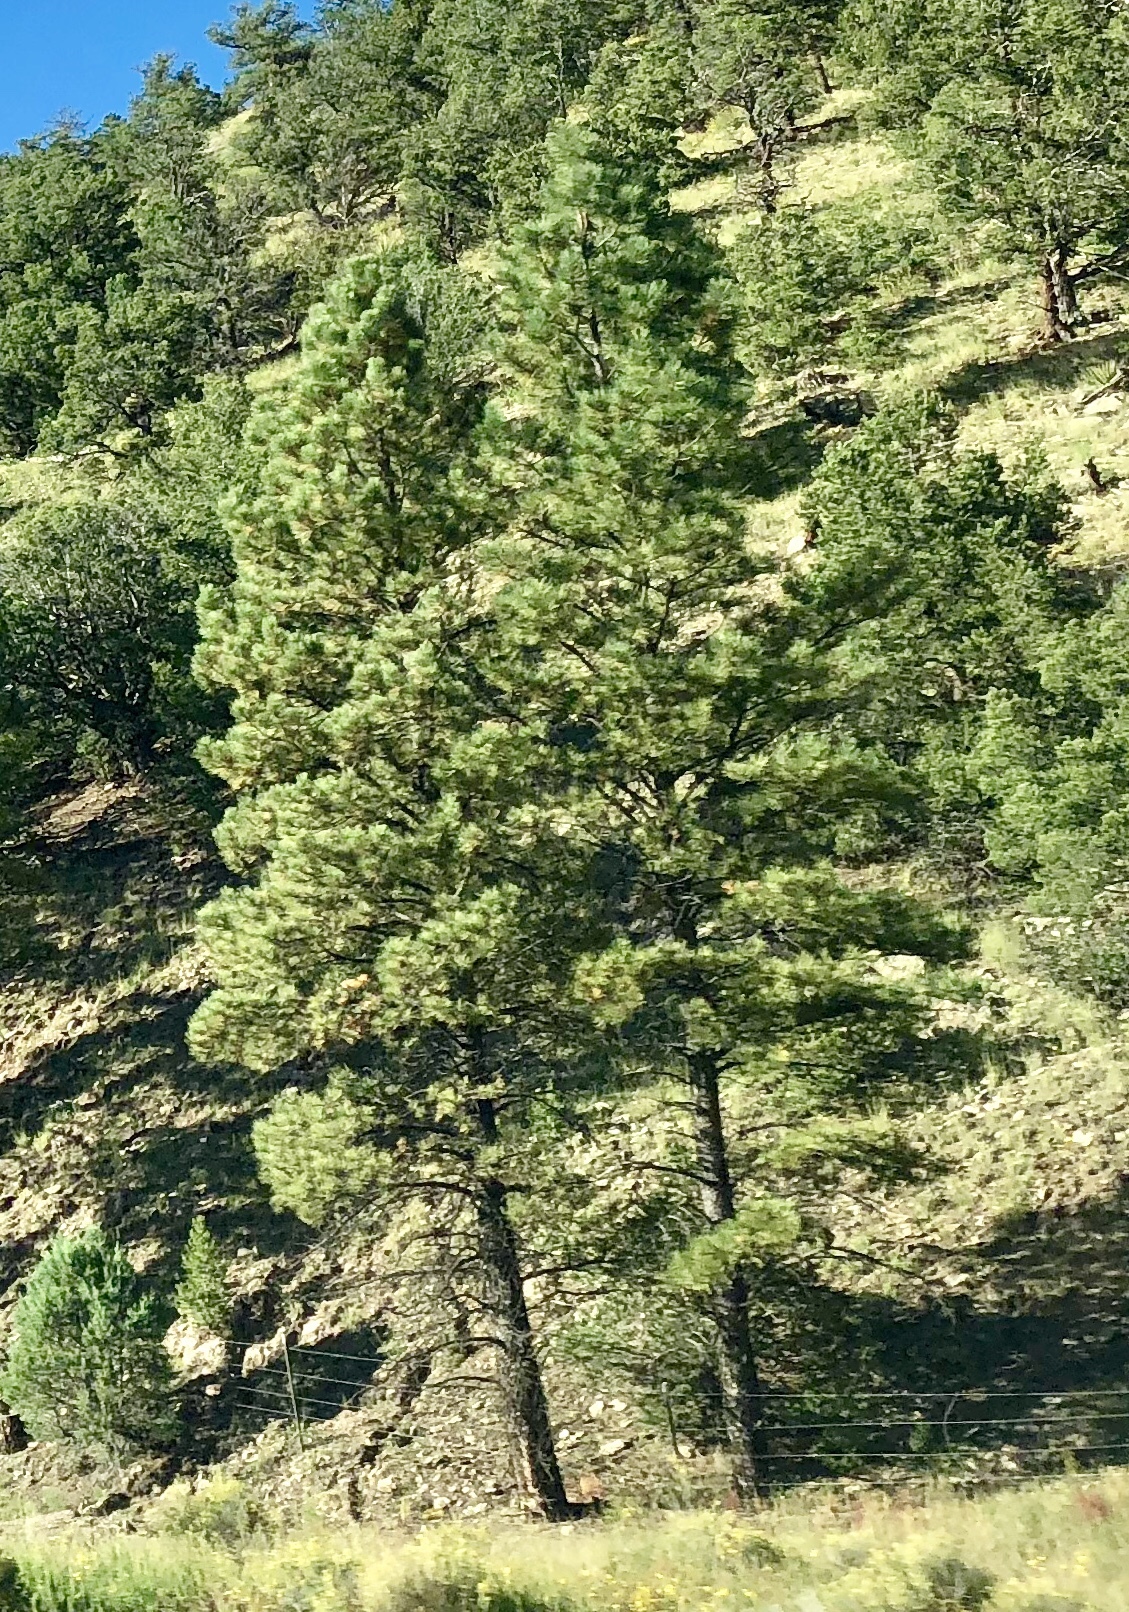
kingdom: Plantae
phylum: Tracheophyta
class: Pinopsida
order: Pinales
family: Pinaceae
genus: Pinus
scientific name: Pinus ponderosa
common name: Western yellow-pine
